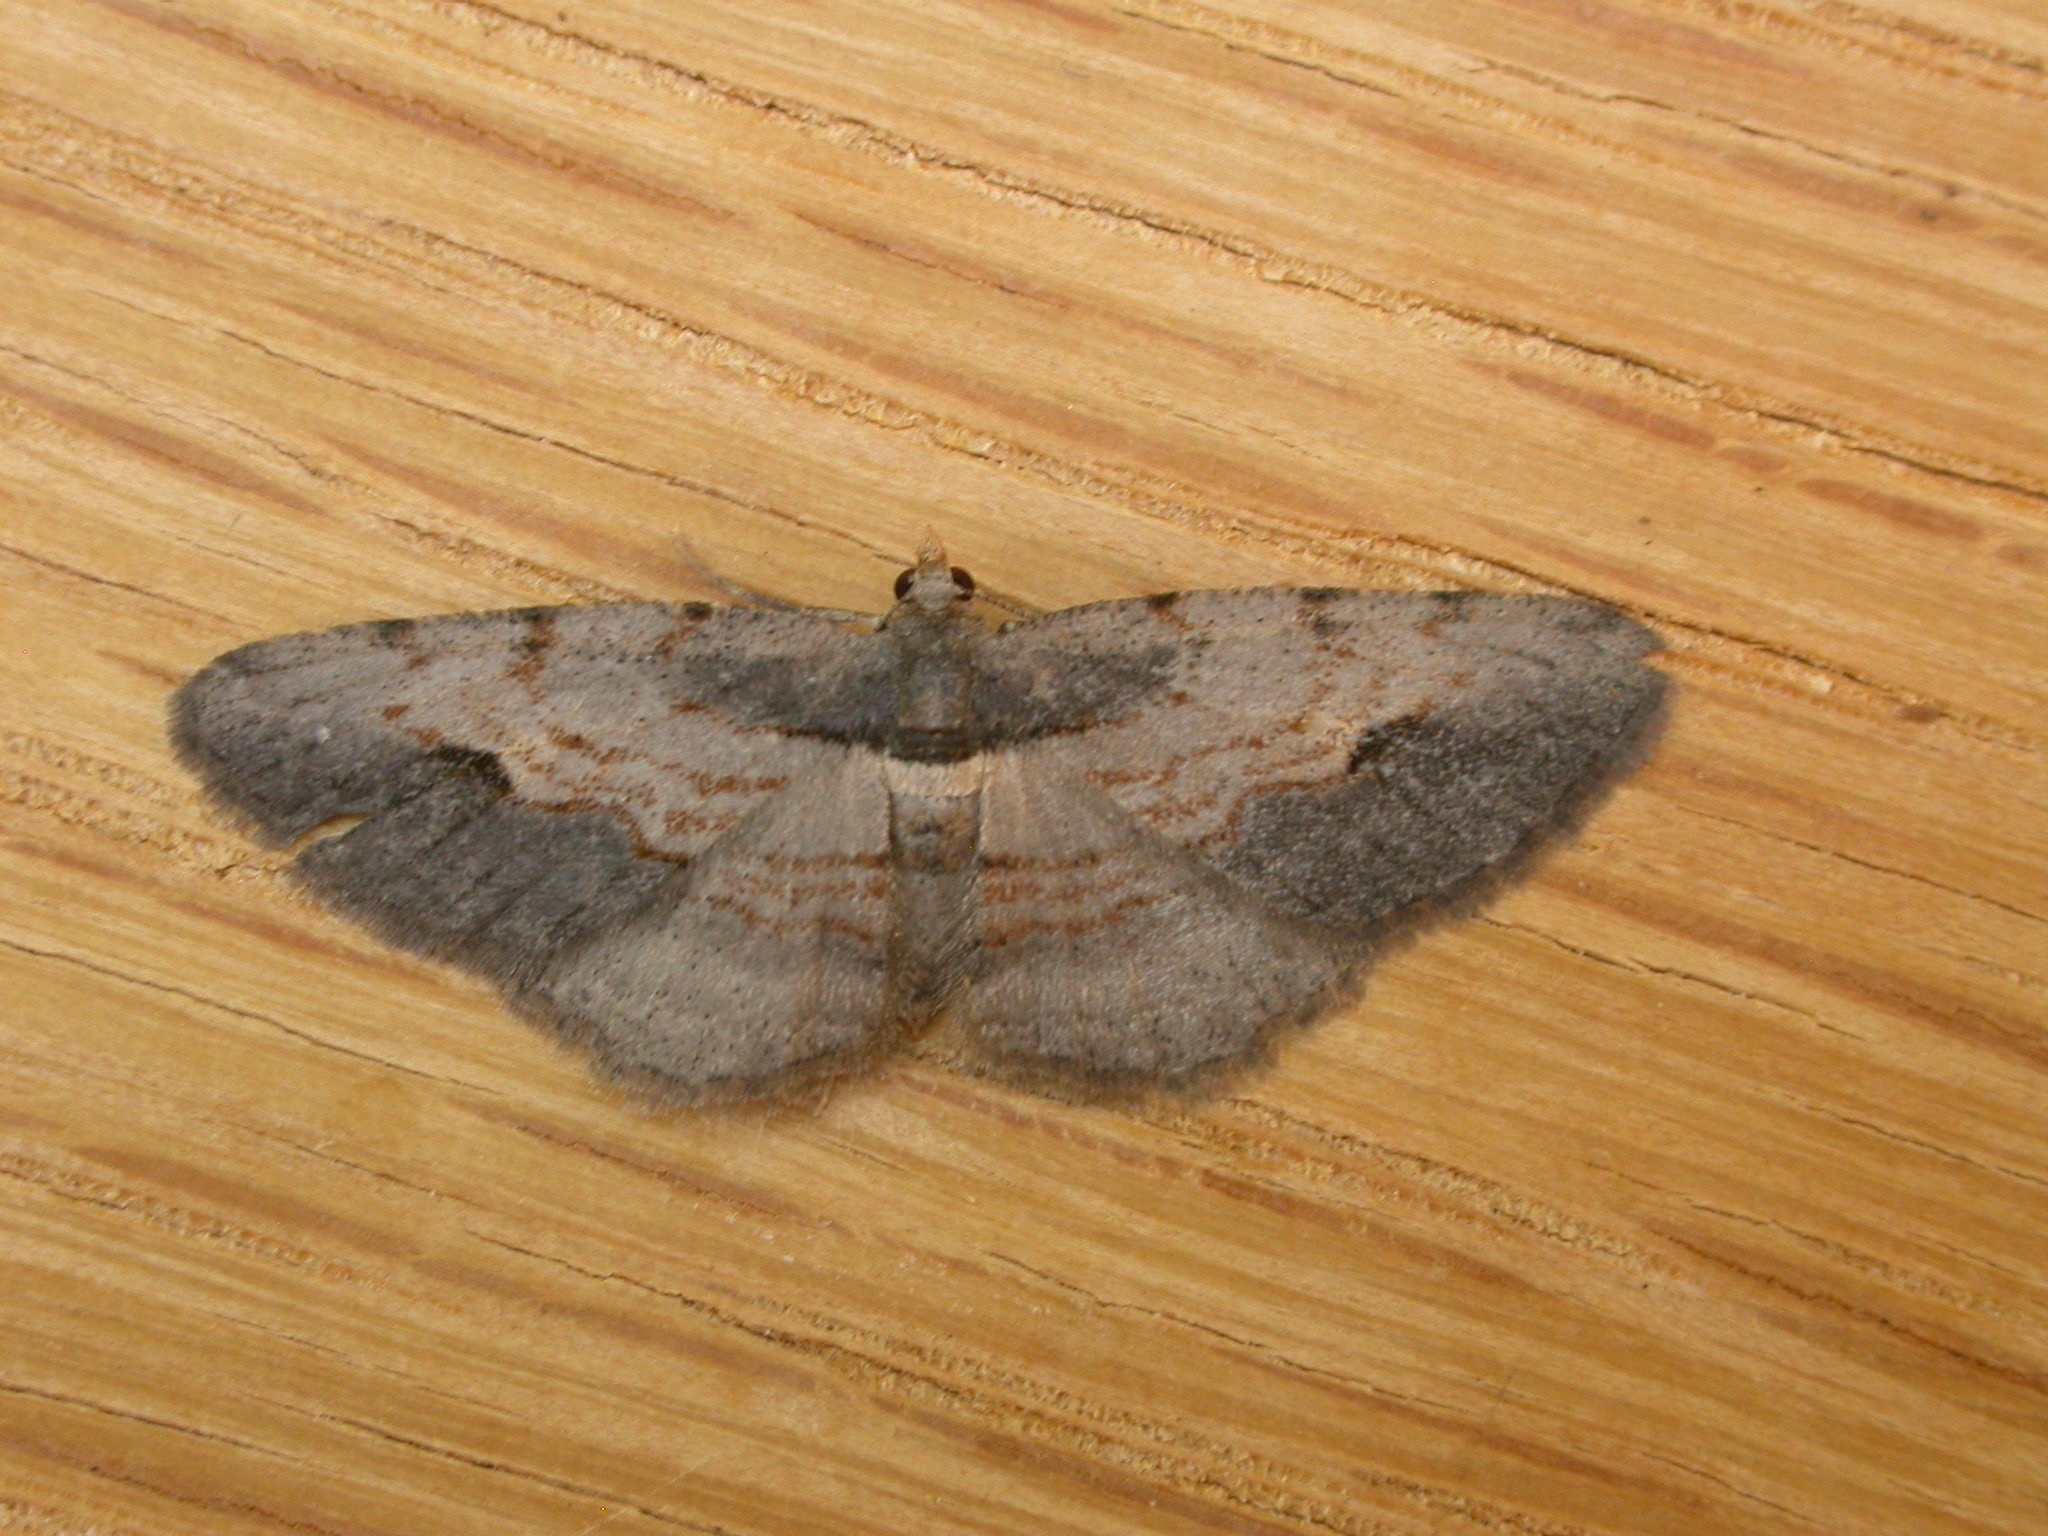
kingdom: Animalia
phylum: Arthropoda
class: Insecta
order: Lepidoptera
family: Geometridae
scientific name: Geometridae
